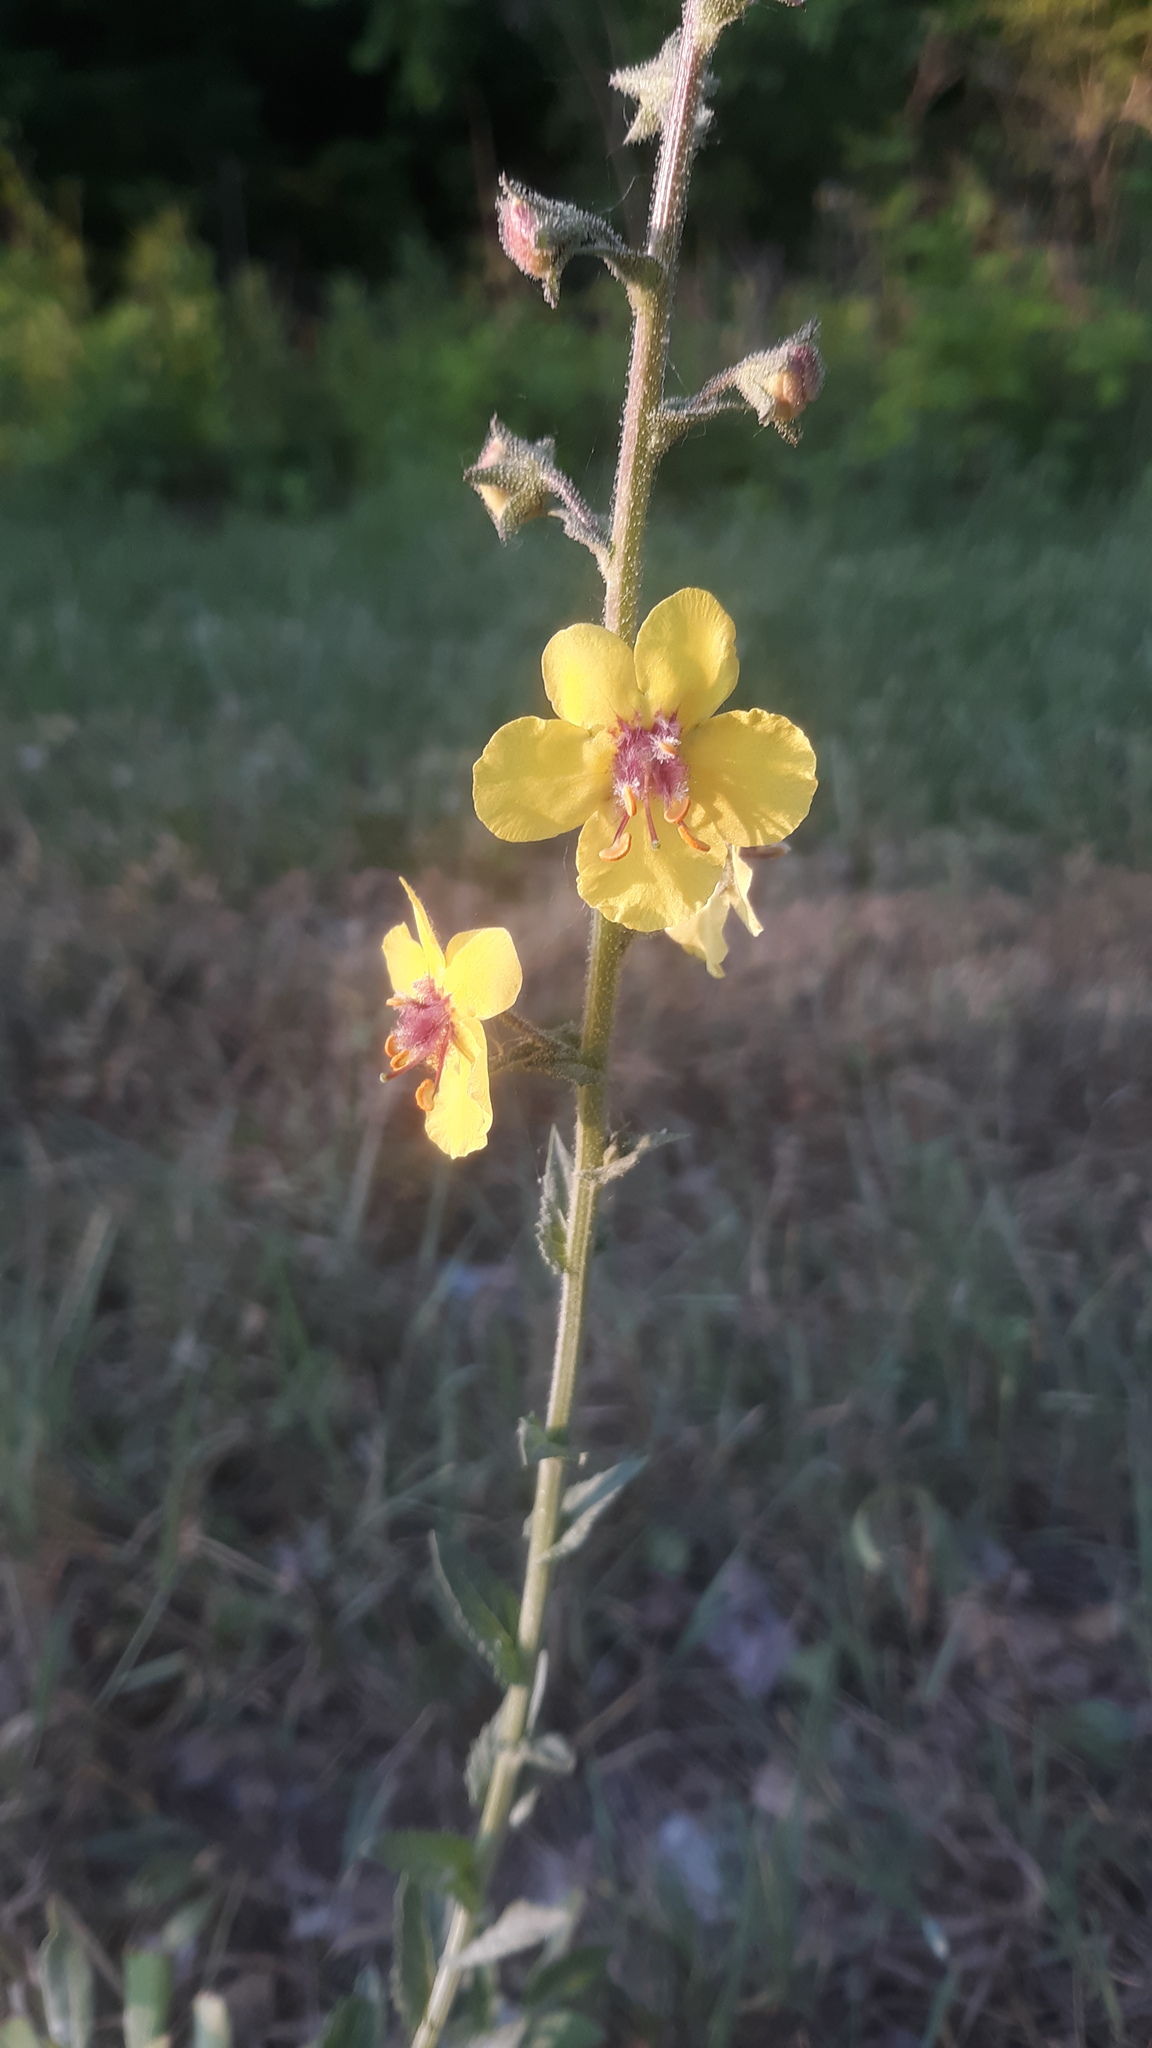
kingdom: Plantae
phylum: Tracheophyta
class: Magnoliopsida
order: Lamiales
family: Scrophulariaceae
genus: Verbascum
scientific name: Verbascum blattaria
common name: Moth mullein
